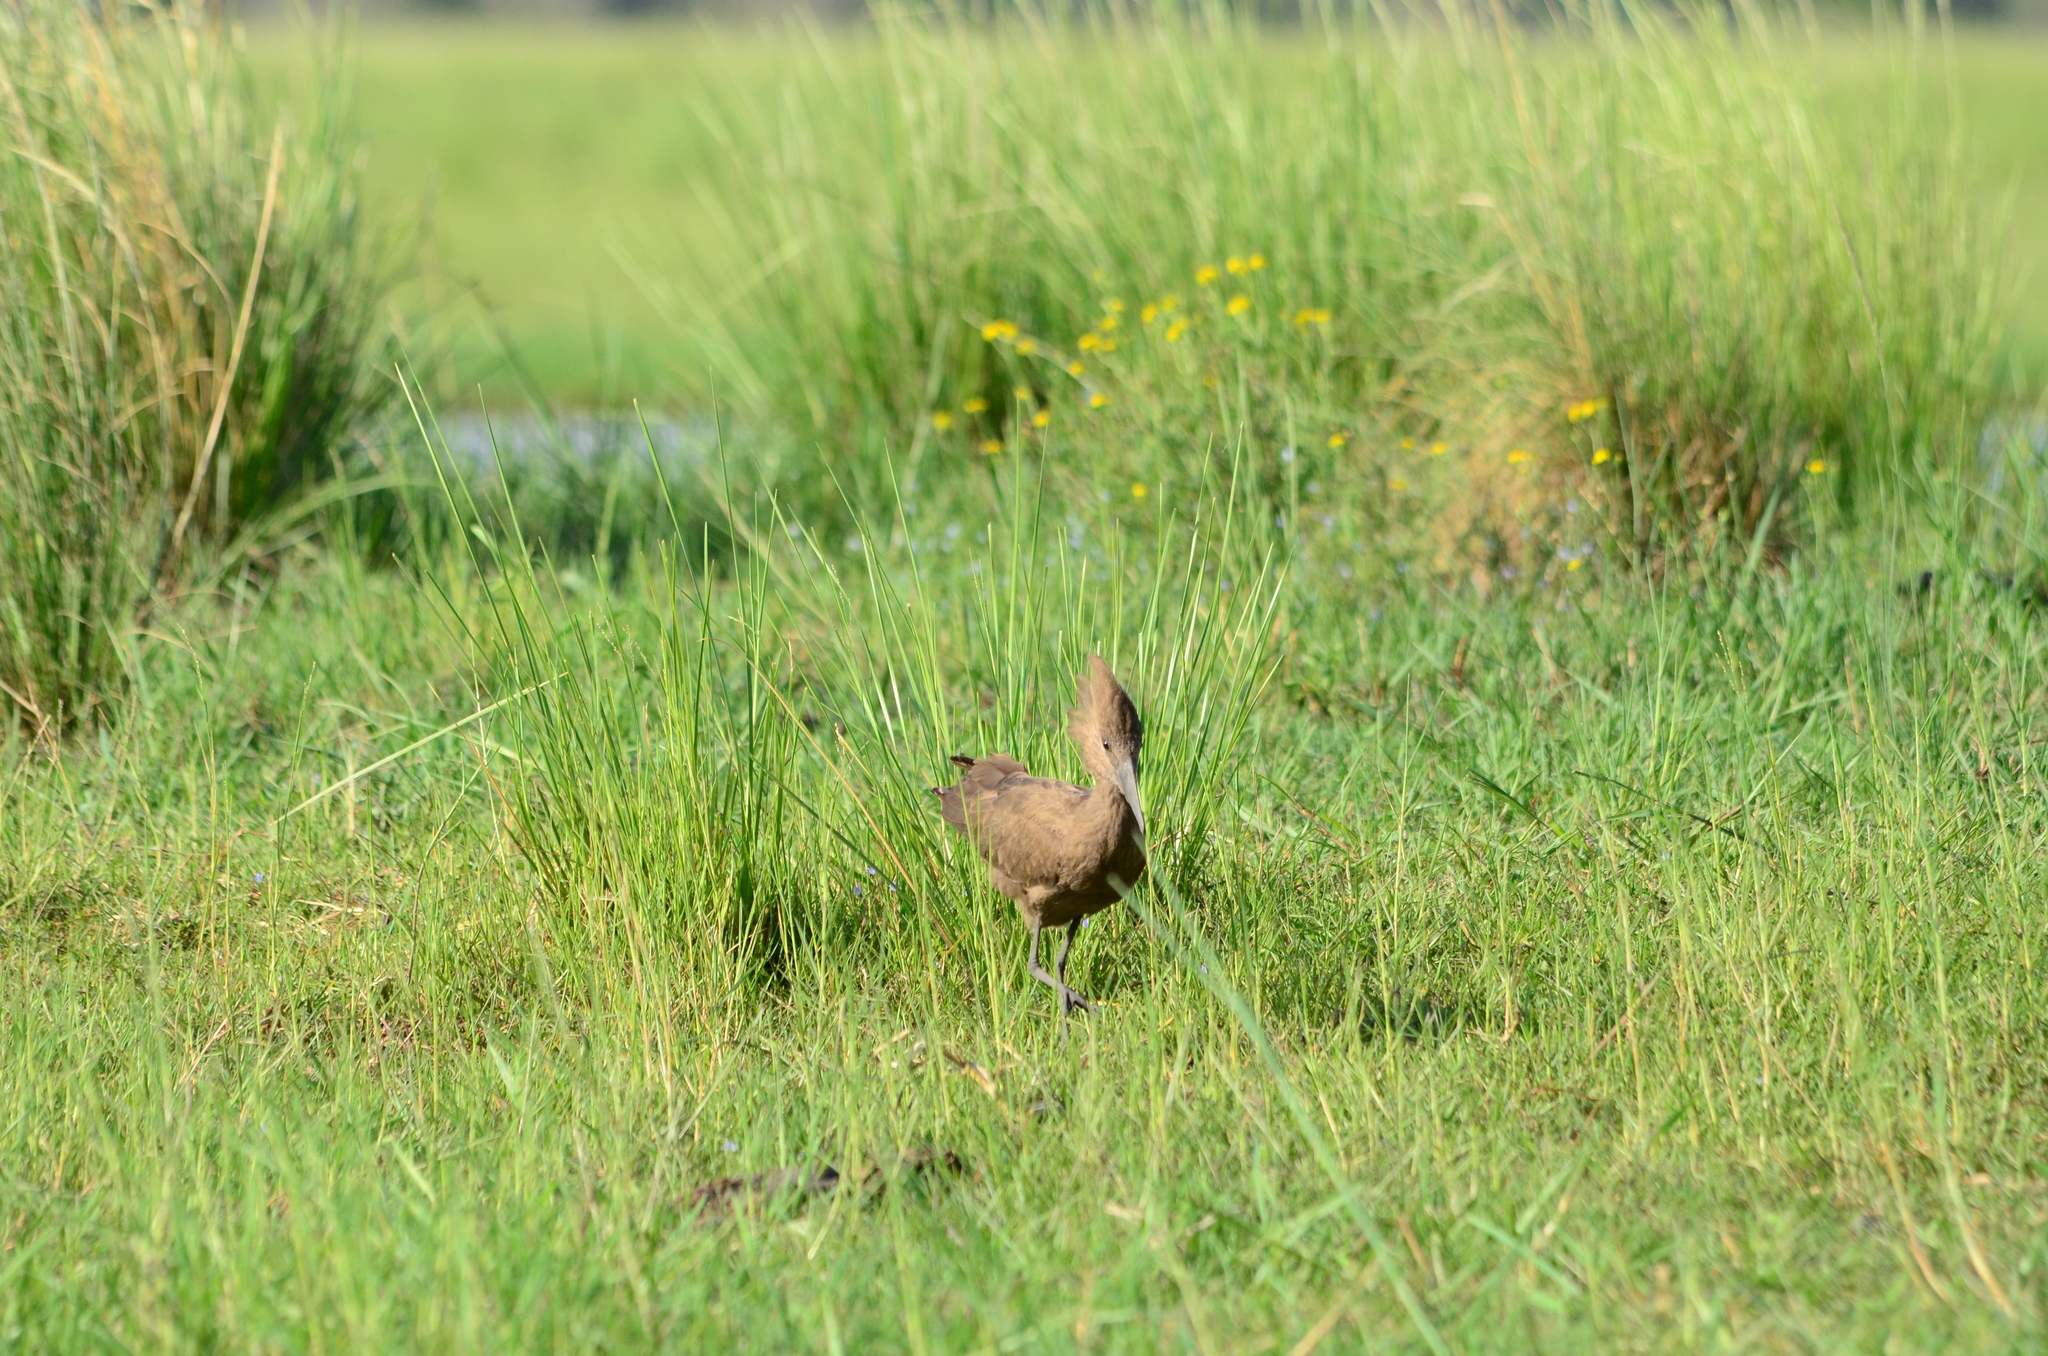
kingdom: Animalia
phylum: Chordata
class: Aves
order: Pelecaniformes
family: Scopidae
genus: Scopus
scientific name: Scopus umbretta
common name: Hamerkop
